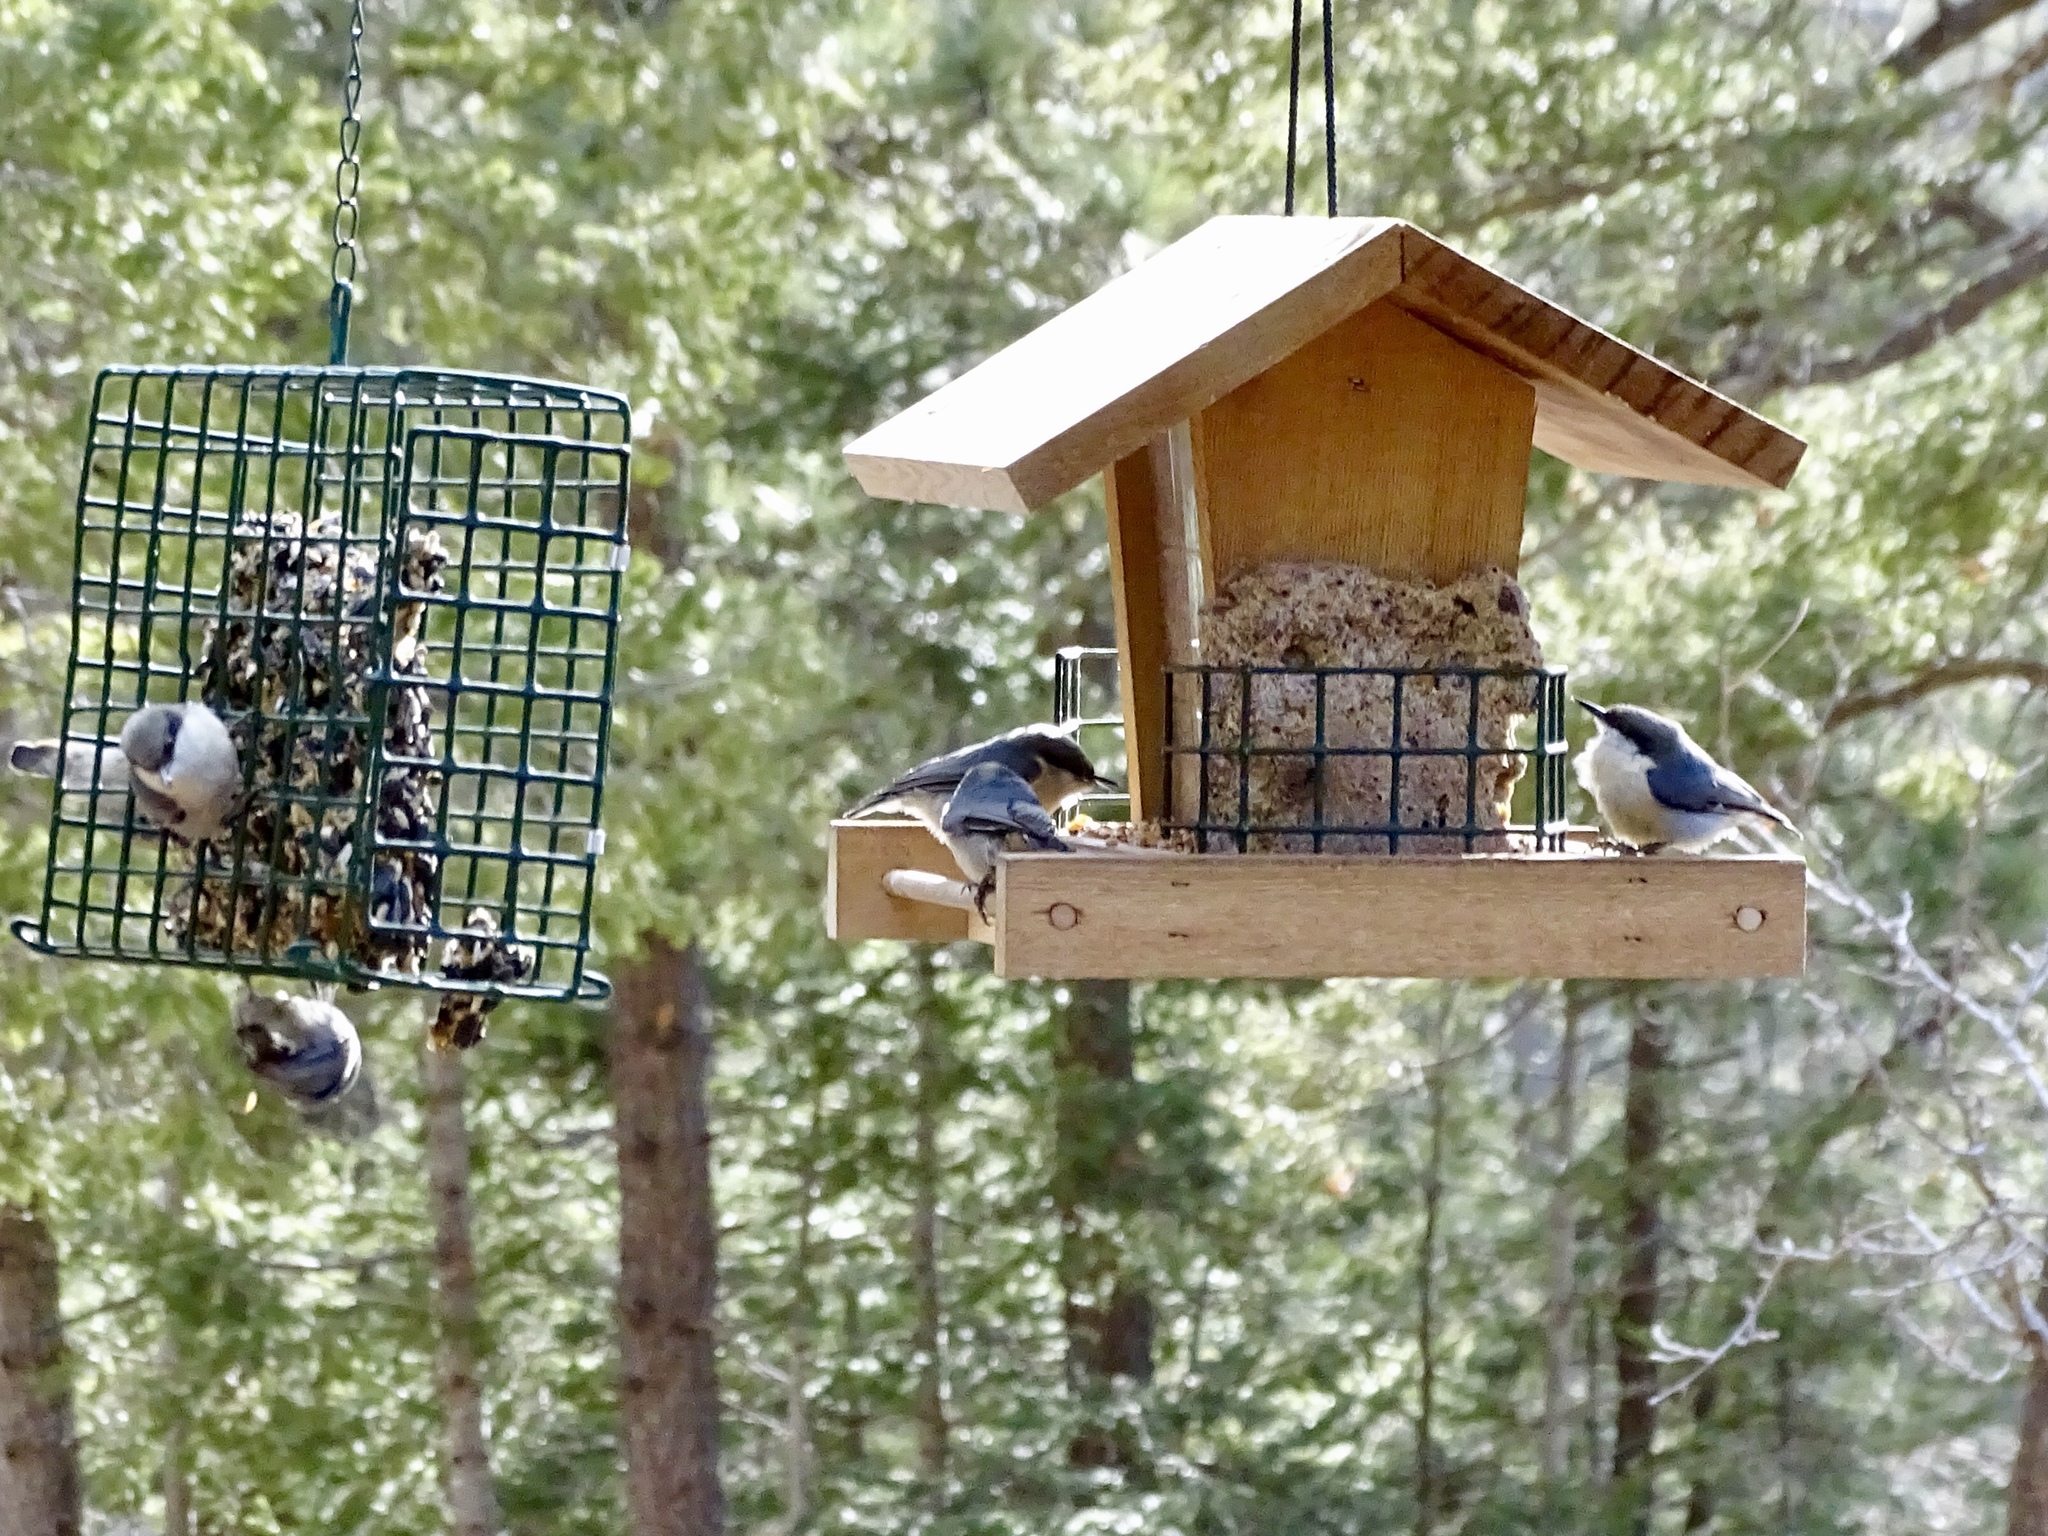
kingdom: Animalia
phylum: Chordata
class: Aves
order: Passeriformes
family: Sittidae
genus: Sitta
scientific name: Sitta pygmaea
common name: Pygmy nuthatch
